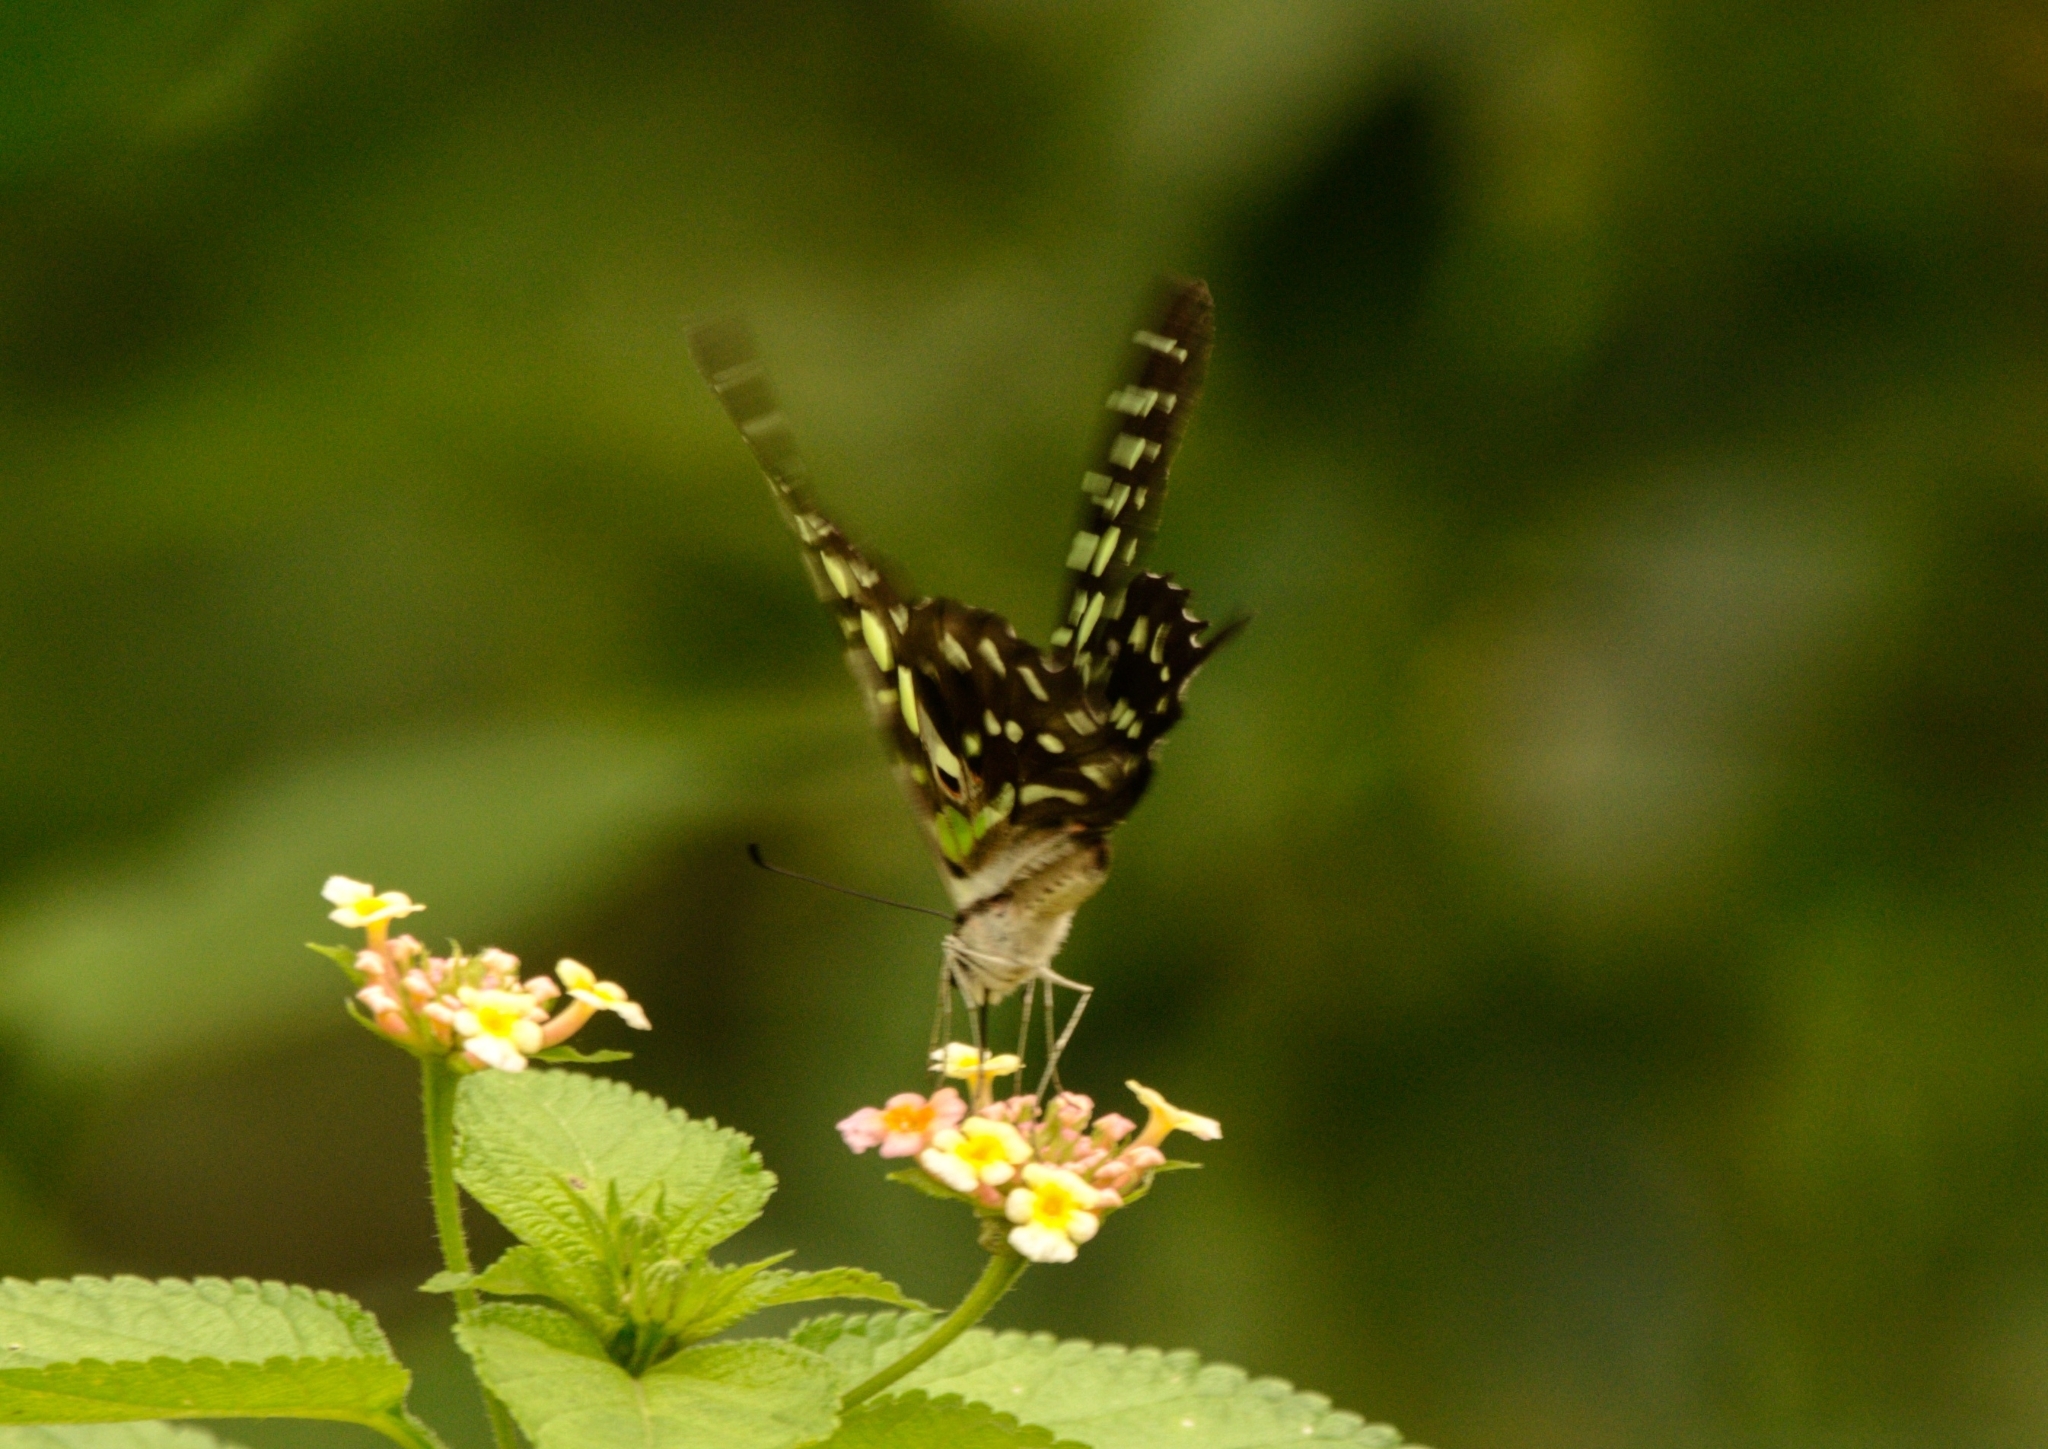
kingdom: Animalia
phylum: Arthropoda
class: Insecta
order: Lepidoptera
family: Papilionidae
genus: Graphium
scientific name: Graphium agamemnon
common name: Tailed jay
